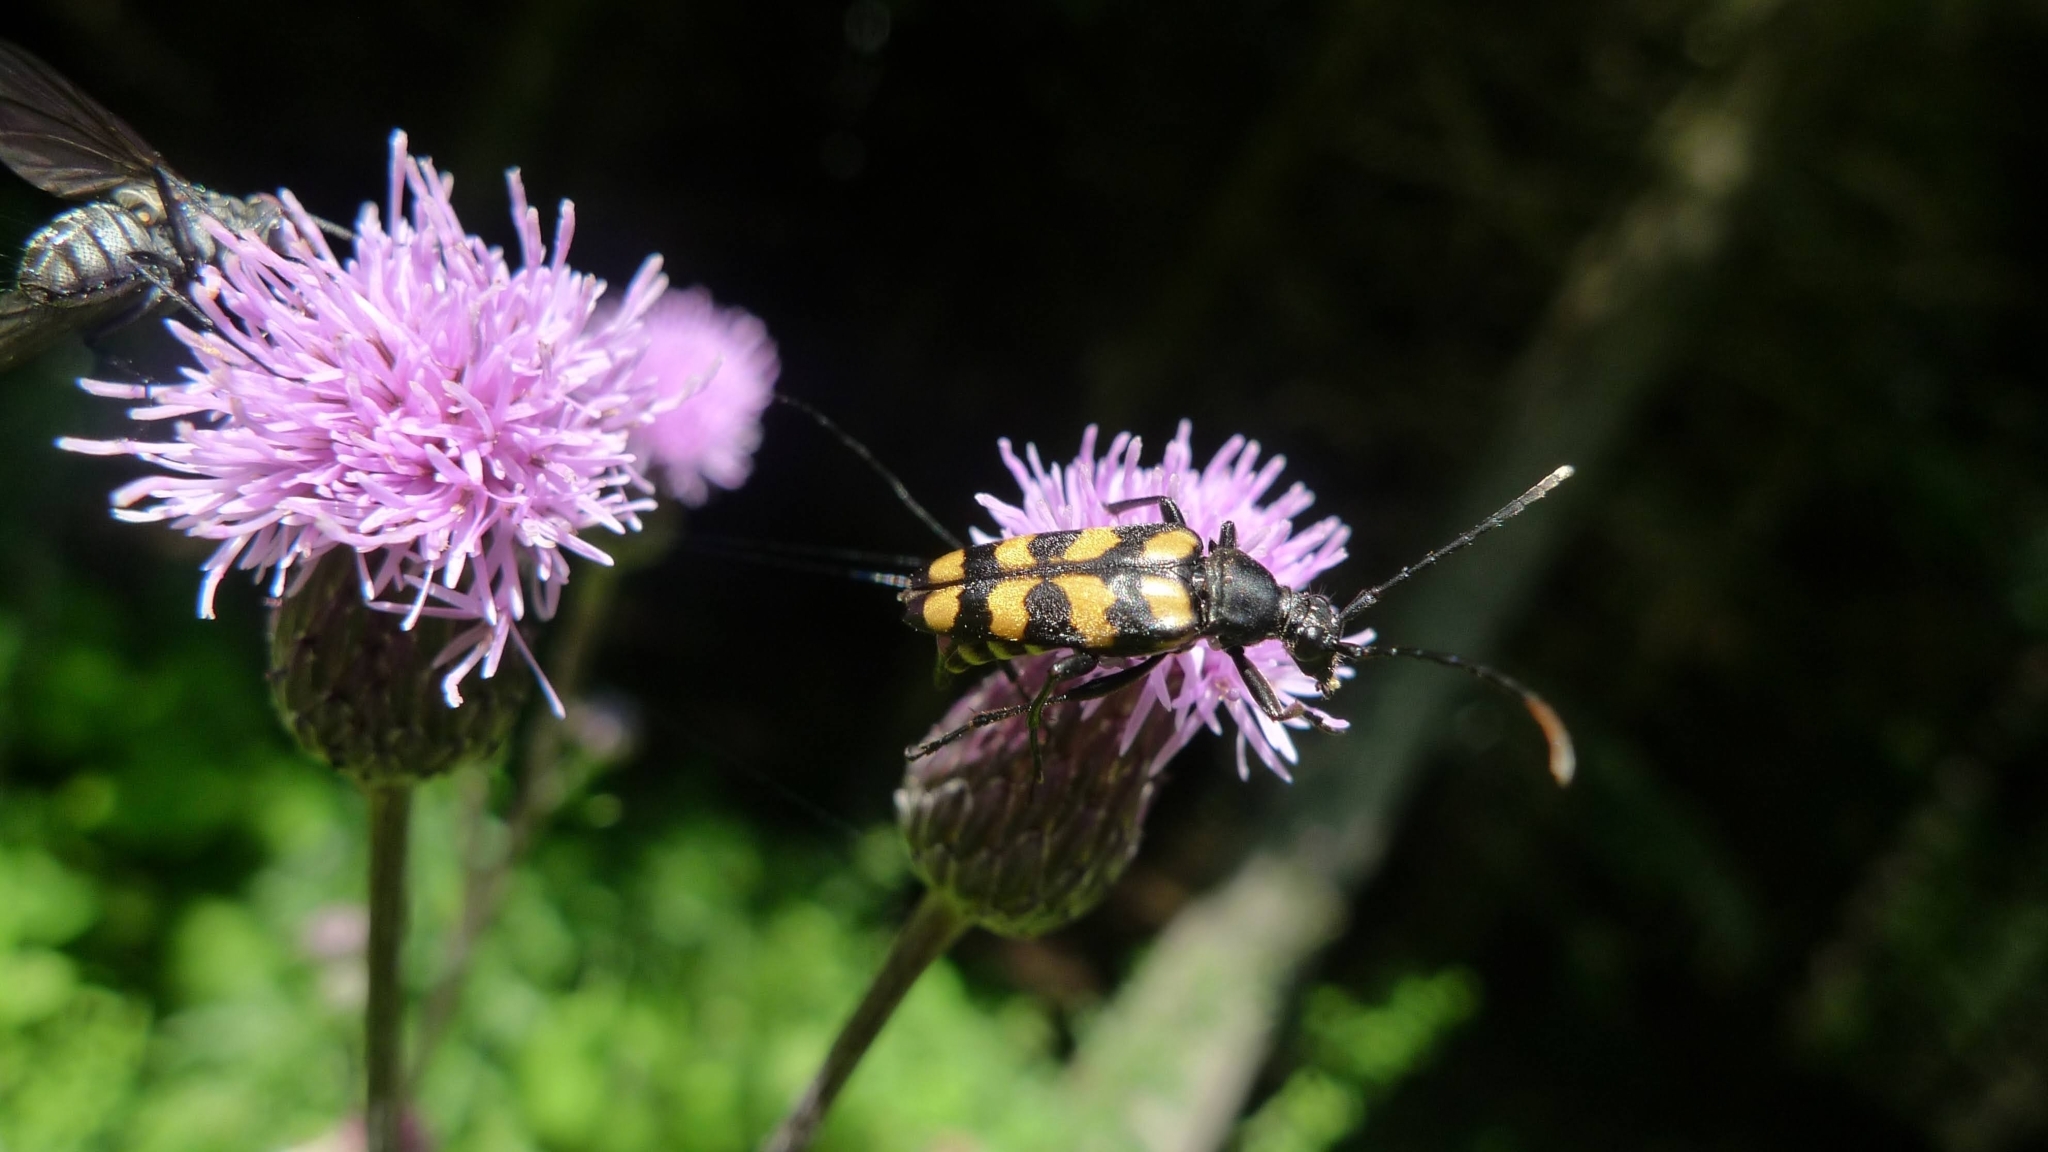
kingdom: Animalia
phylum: Arthropoda
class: Insecta
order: Coleoptera
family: Cerambycidae
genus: Leptura
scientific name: Leptura quadrifasciata
